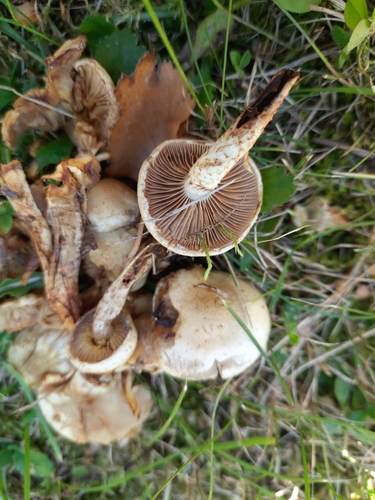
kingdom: Fungi
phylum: Basidiomycota
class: Agaricomycetes
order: Agaricales
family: Strophariaceae
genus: Pholiota
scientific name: Pholiota gummosa
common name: Sticky scalycap
